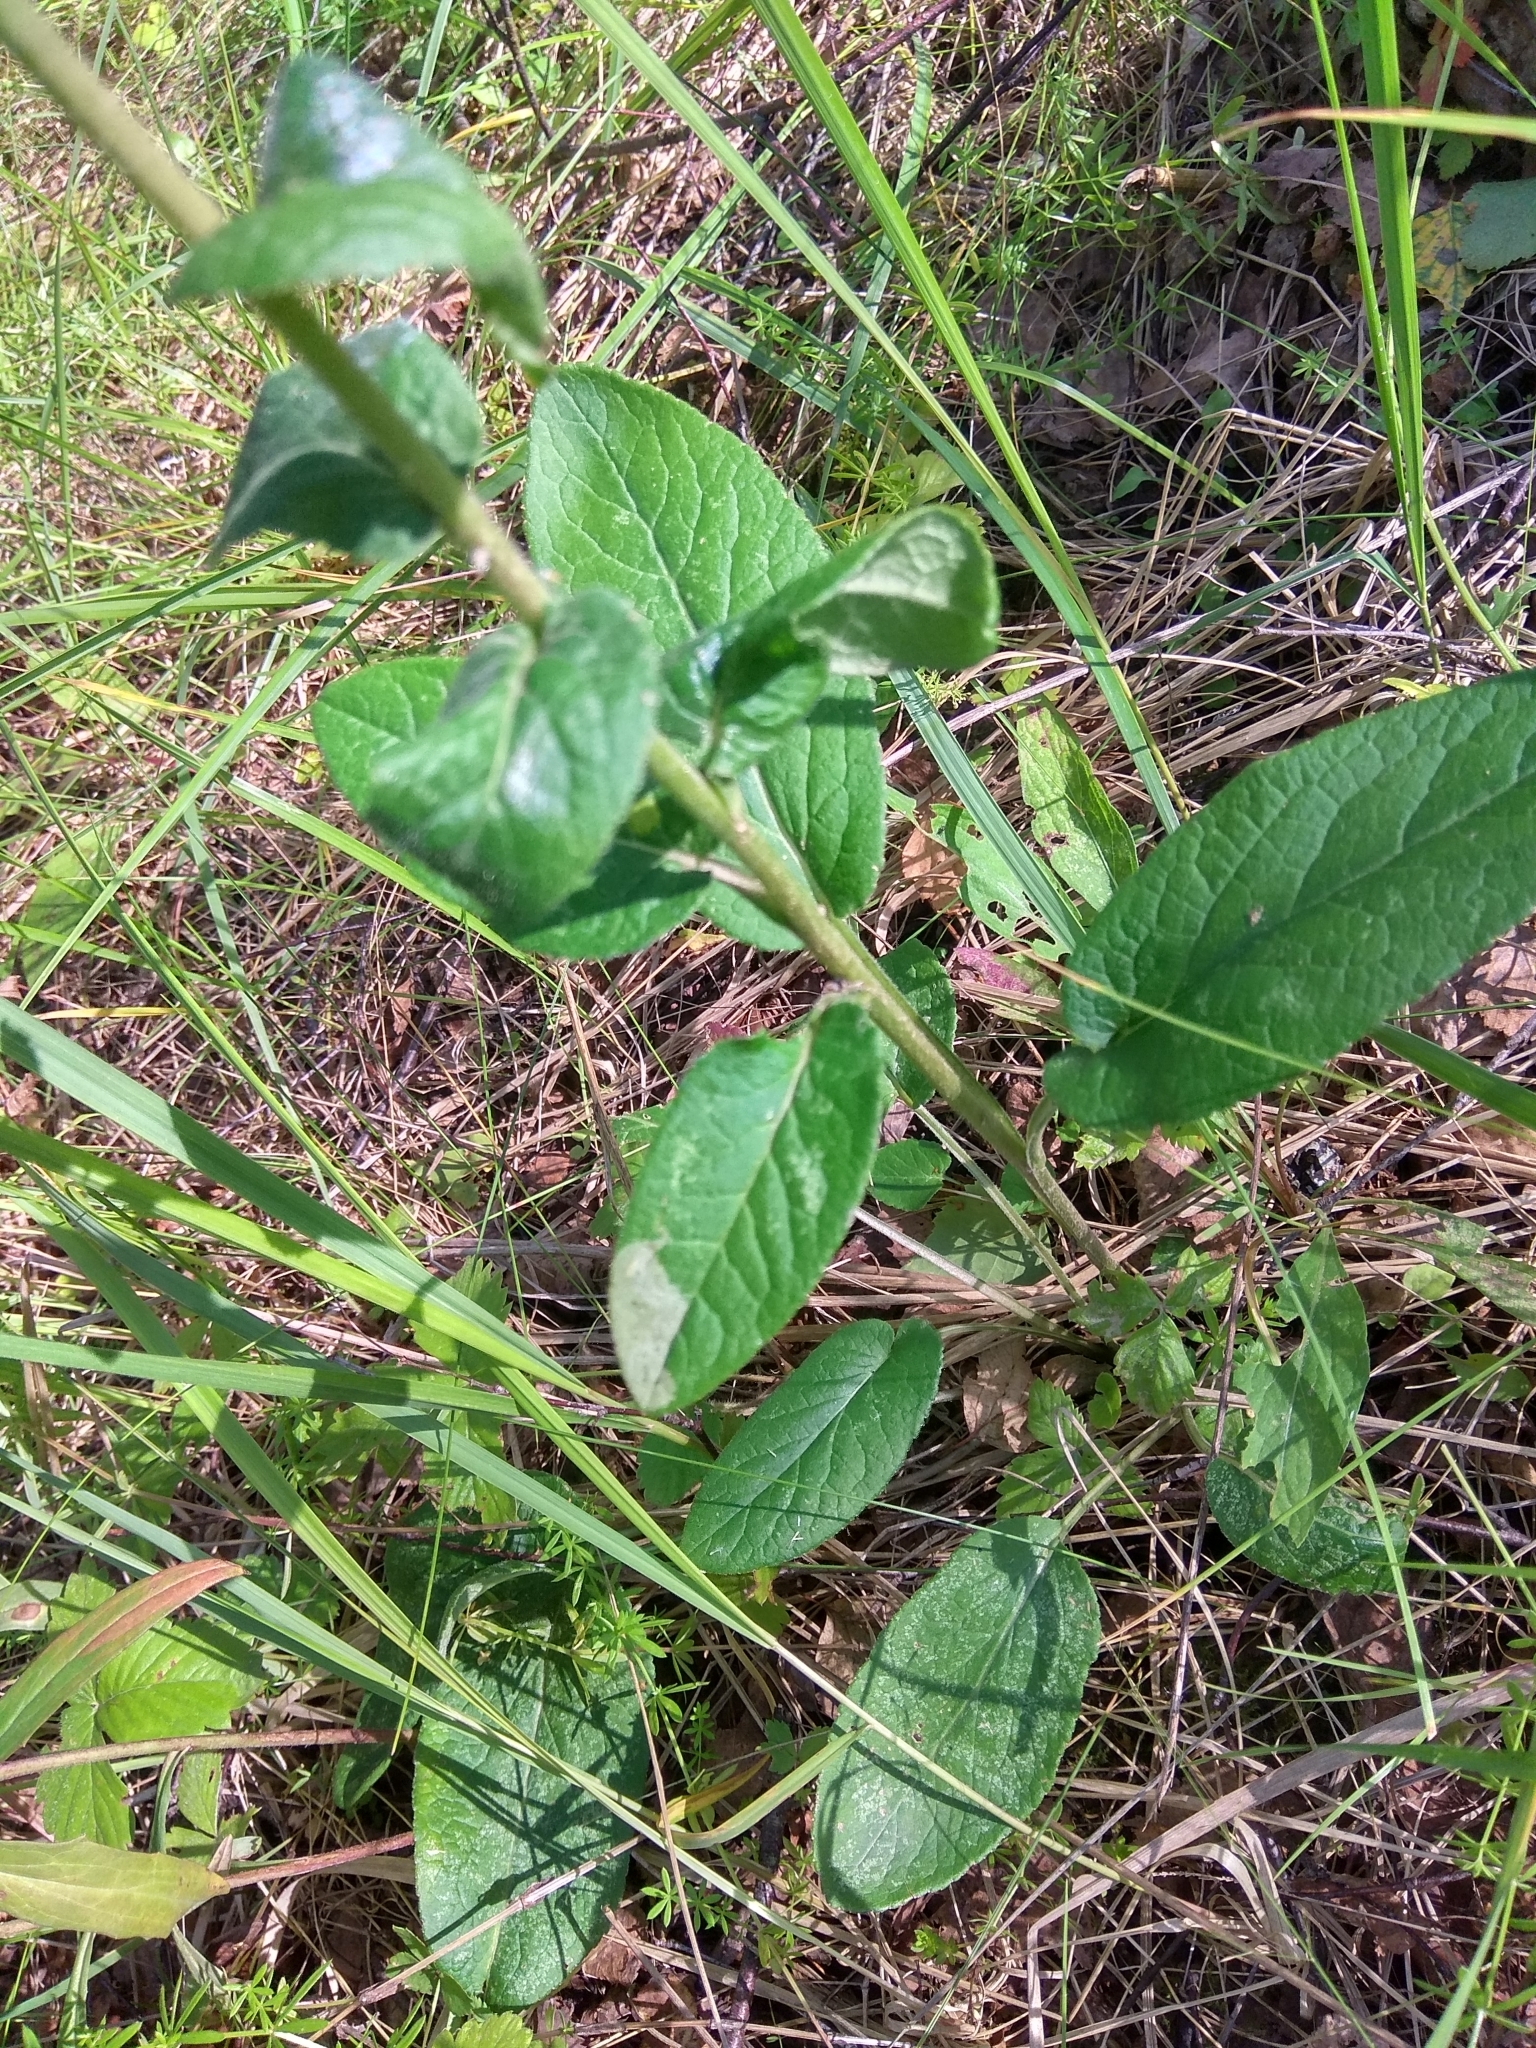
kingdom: Plantae
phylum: Tracheophyta
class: Magnoliopsida
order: Asterales
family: Campanulaceae
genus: Campanula
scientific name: Campanula glomerata
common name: Clustered bellflower
